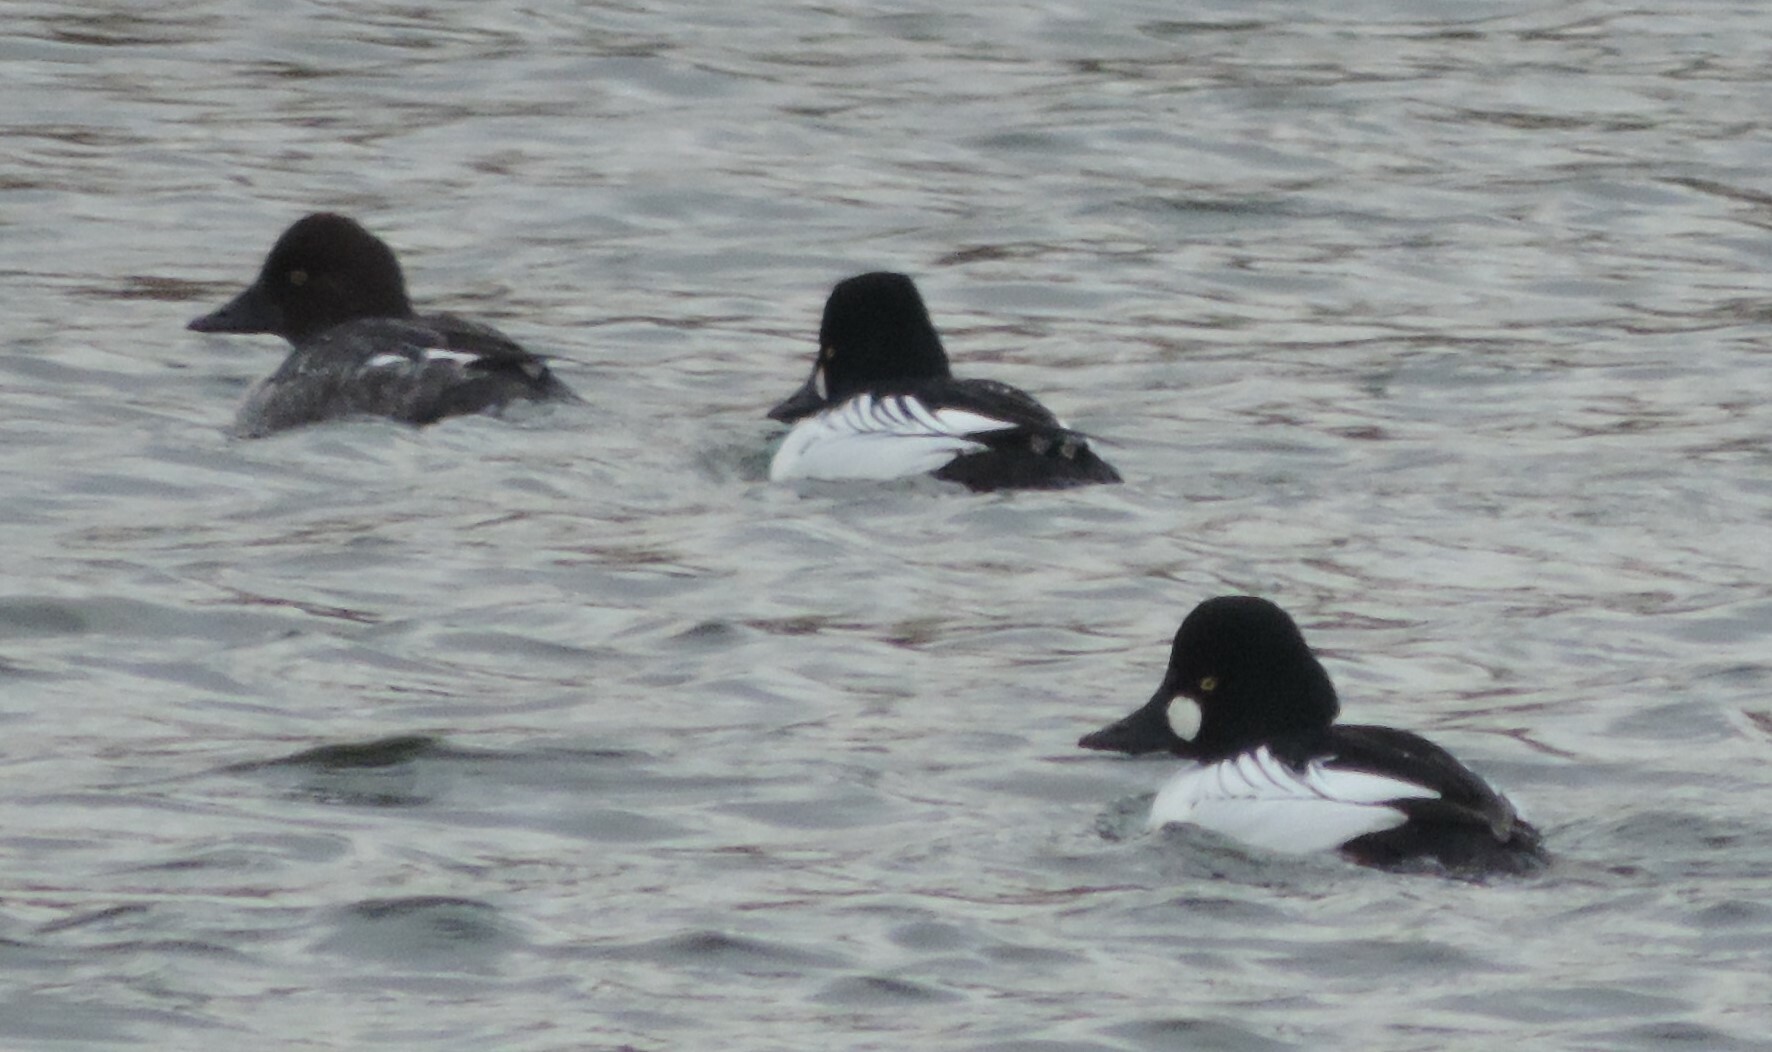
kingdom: Animalia
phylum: Chordata
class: Aves
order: Anseriformes
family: Anatidae
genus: Bucephala
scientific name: Bucephala clangula
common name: Common goldeneye
